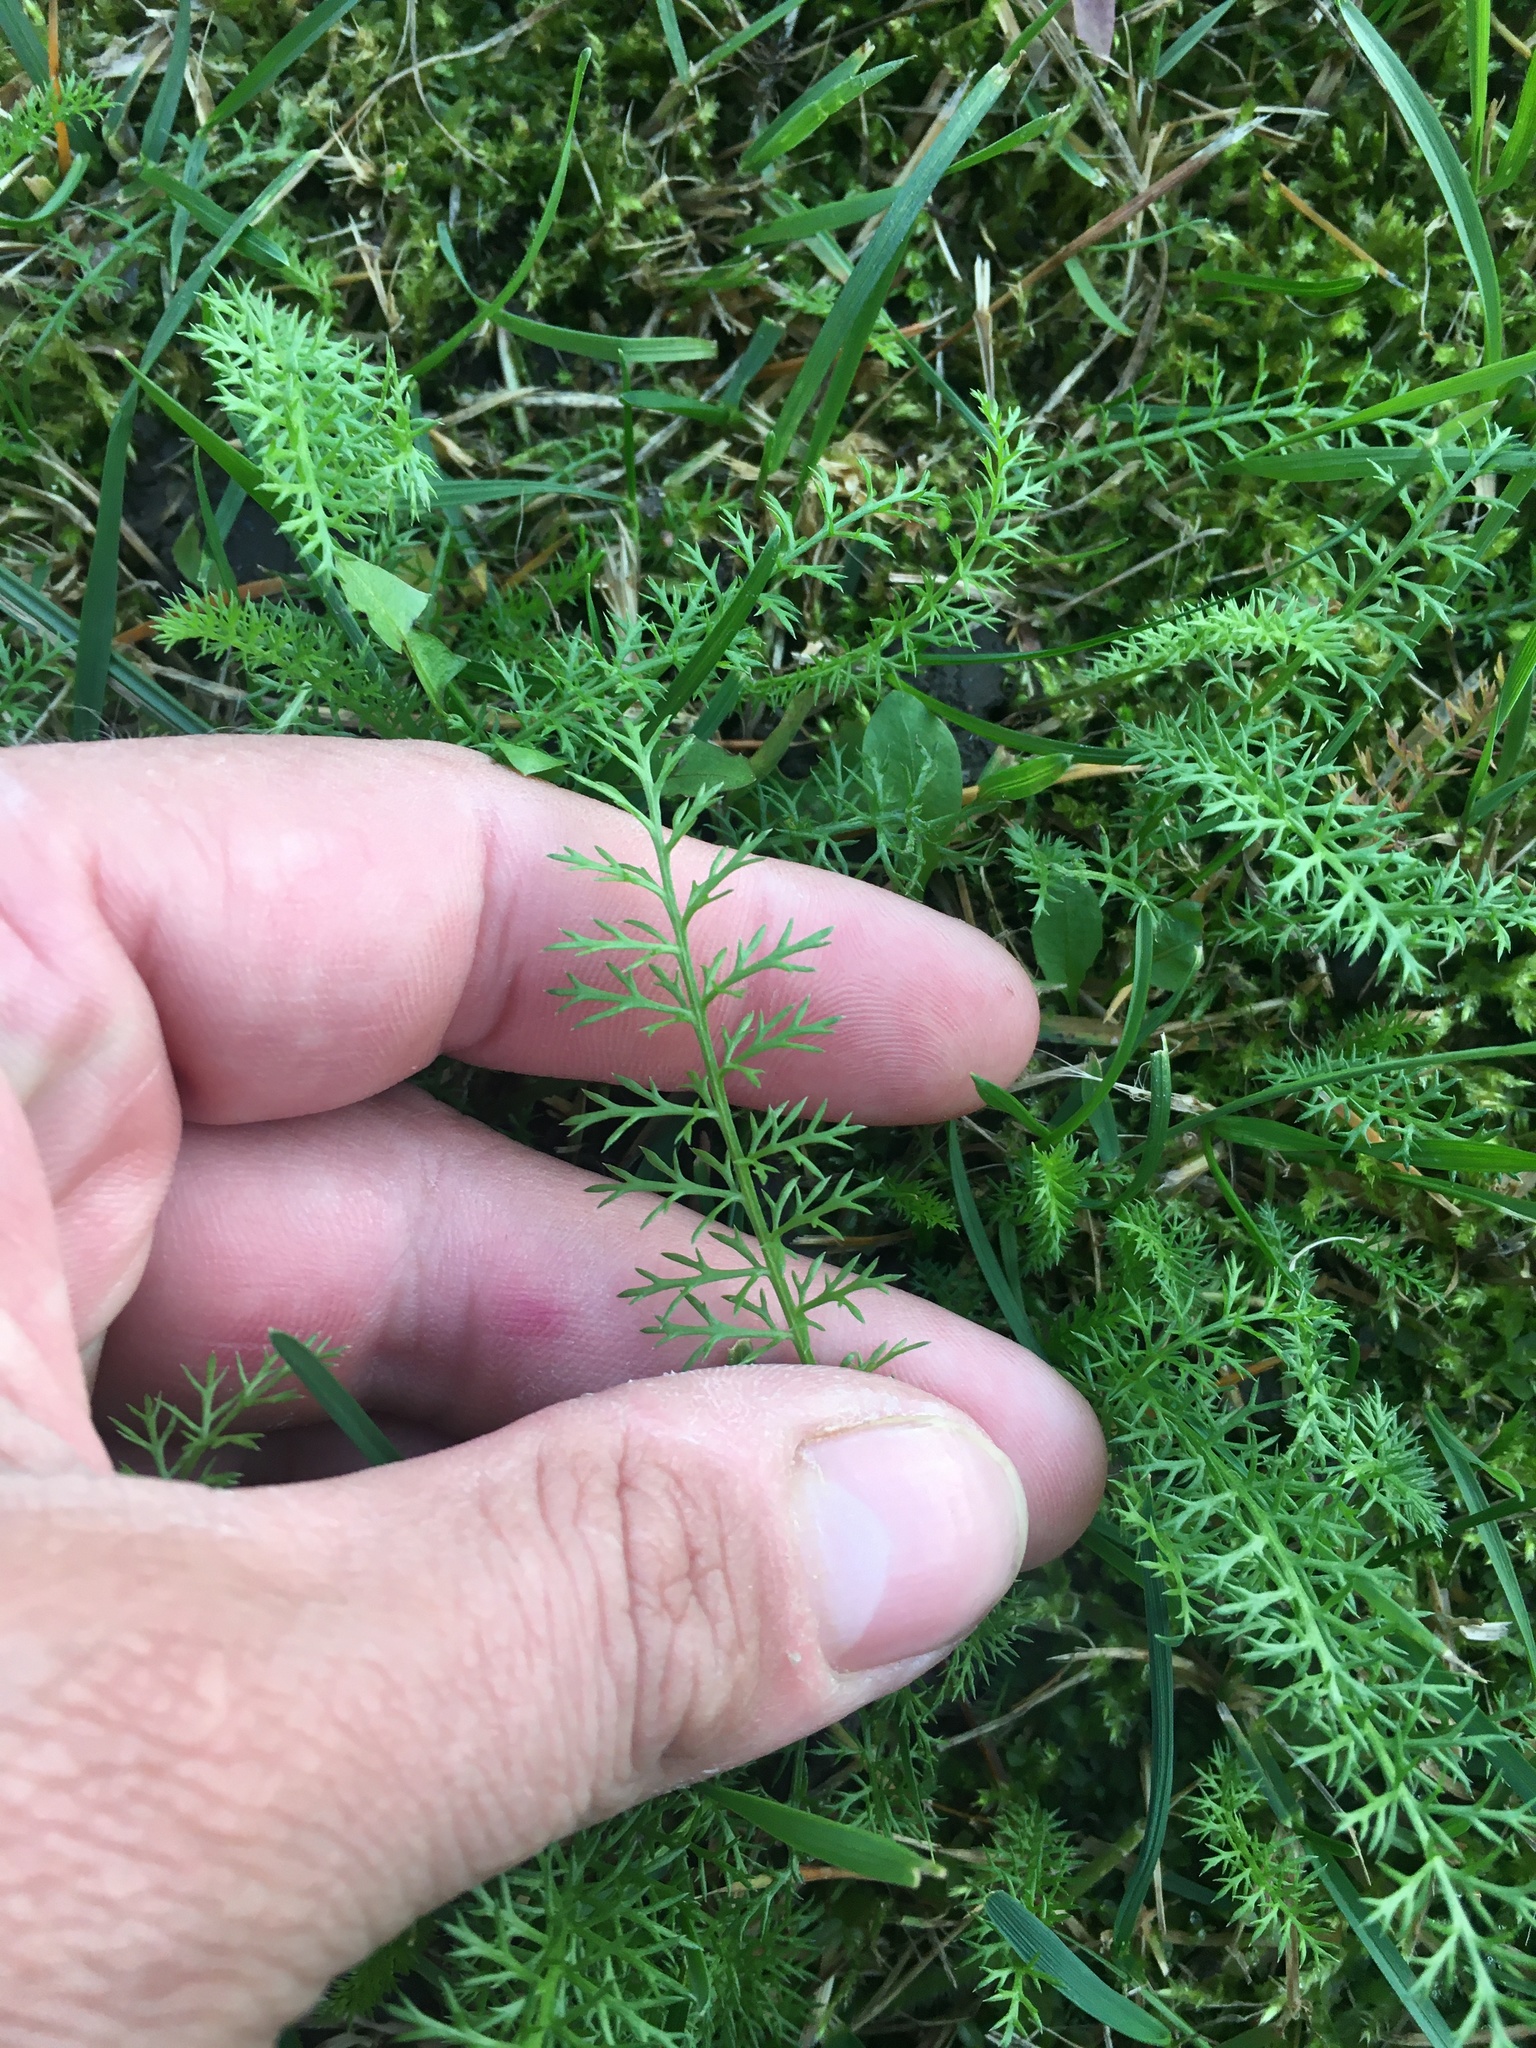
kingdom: Plantae
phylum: Tracheophyta
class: Magnoliopsida
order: Asterales
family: Asteraceae
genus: Achillea
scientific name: Achillea millefolium
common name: Yarrow
